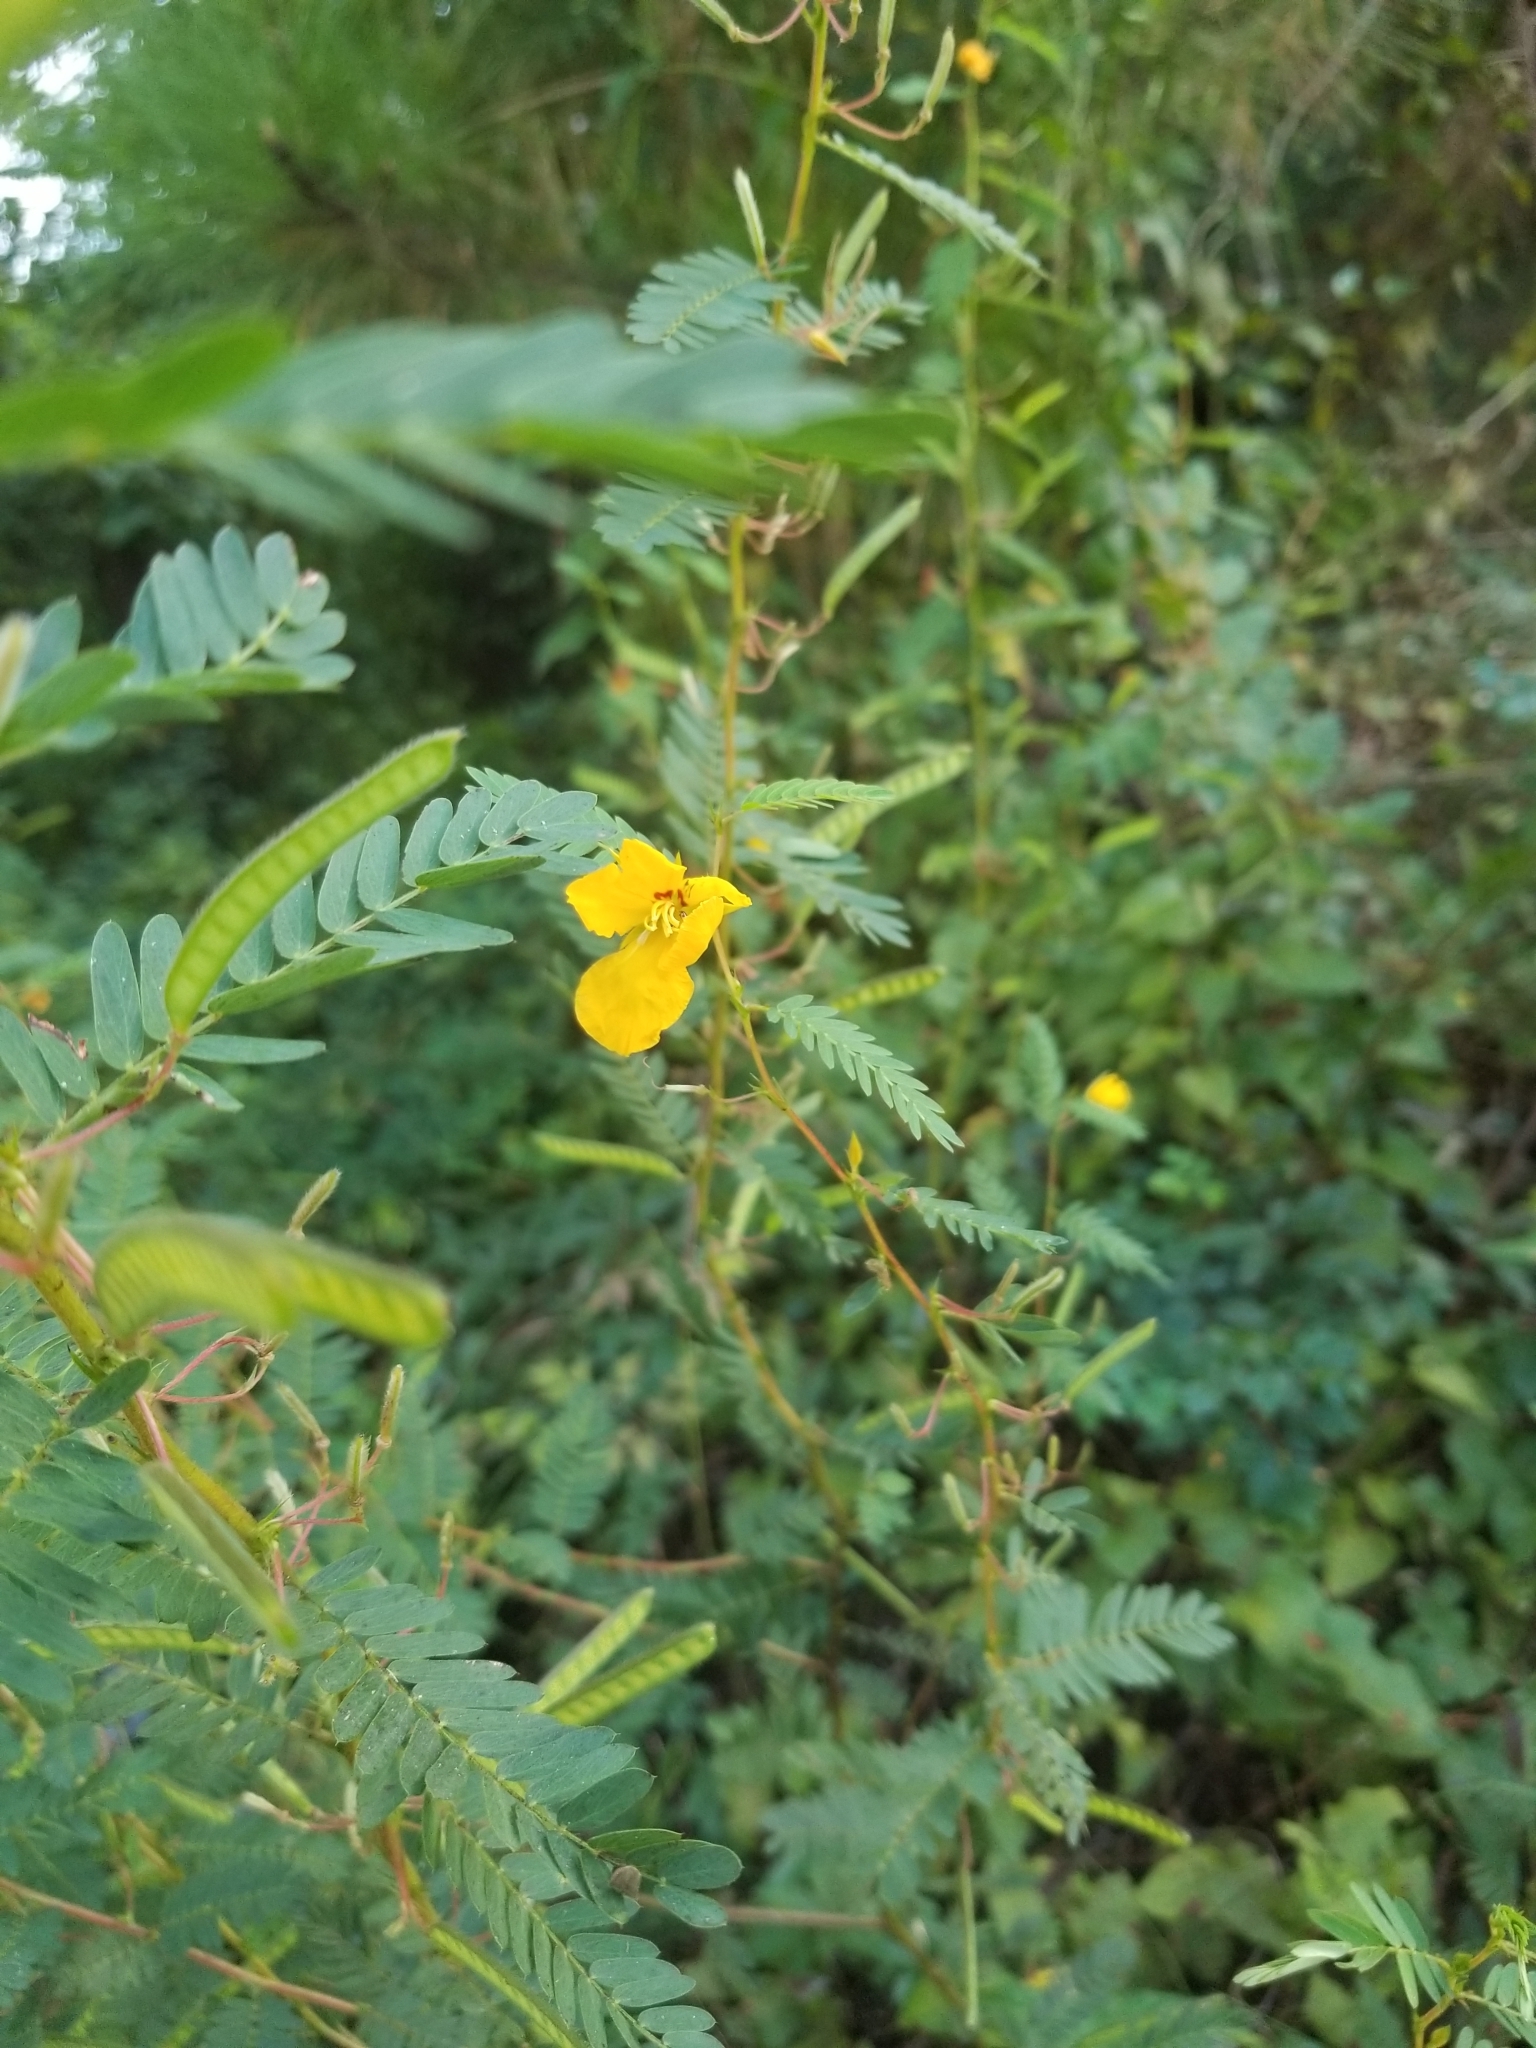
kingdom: Plantae
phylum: Tracheophyta
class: Magnoliopsida
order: Fabales
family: Fabaceae
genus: Chamaecrista
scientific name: Chamaecrista fasciculata
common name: Golden cassia
